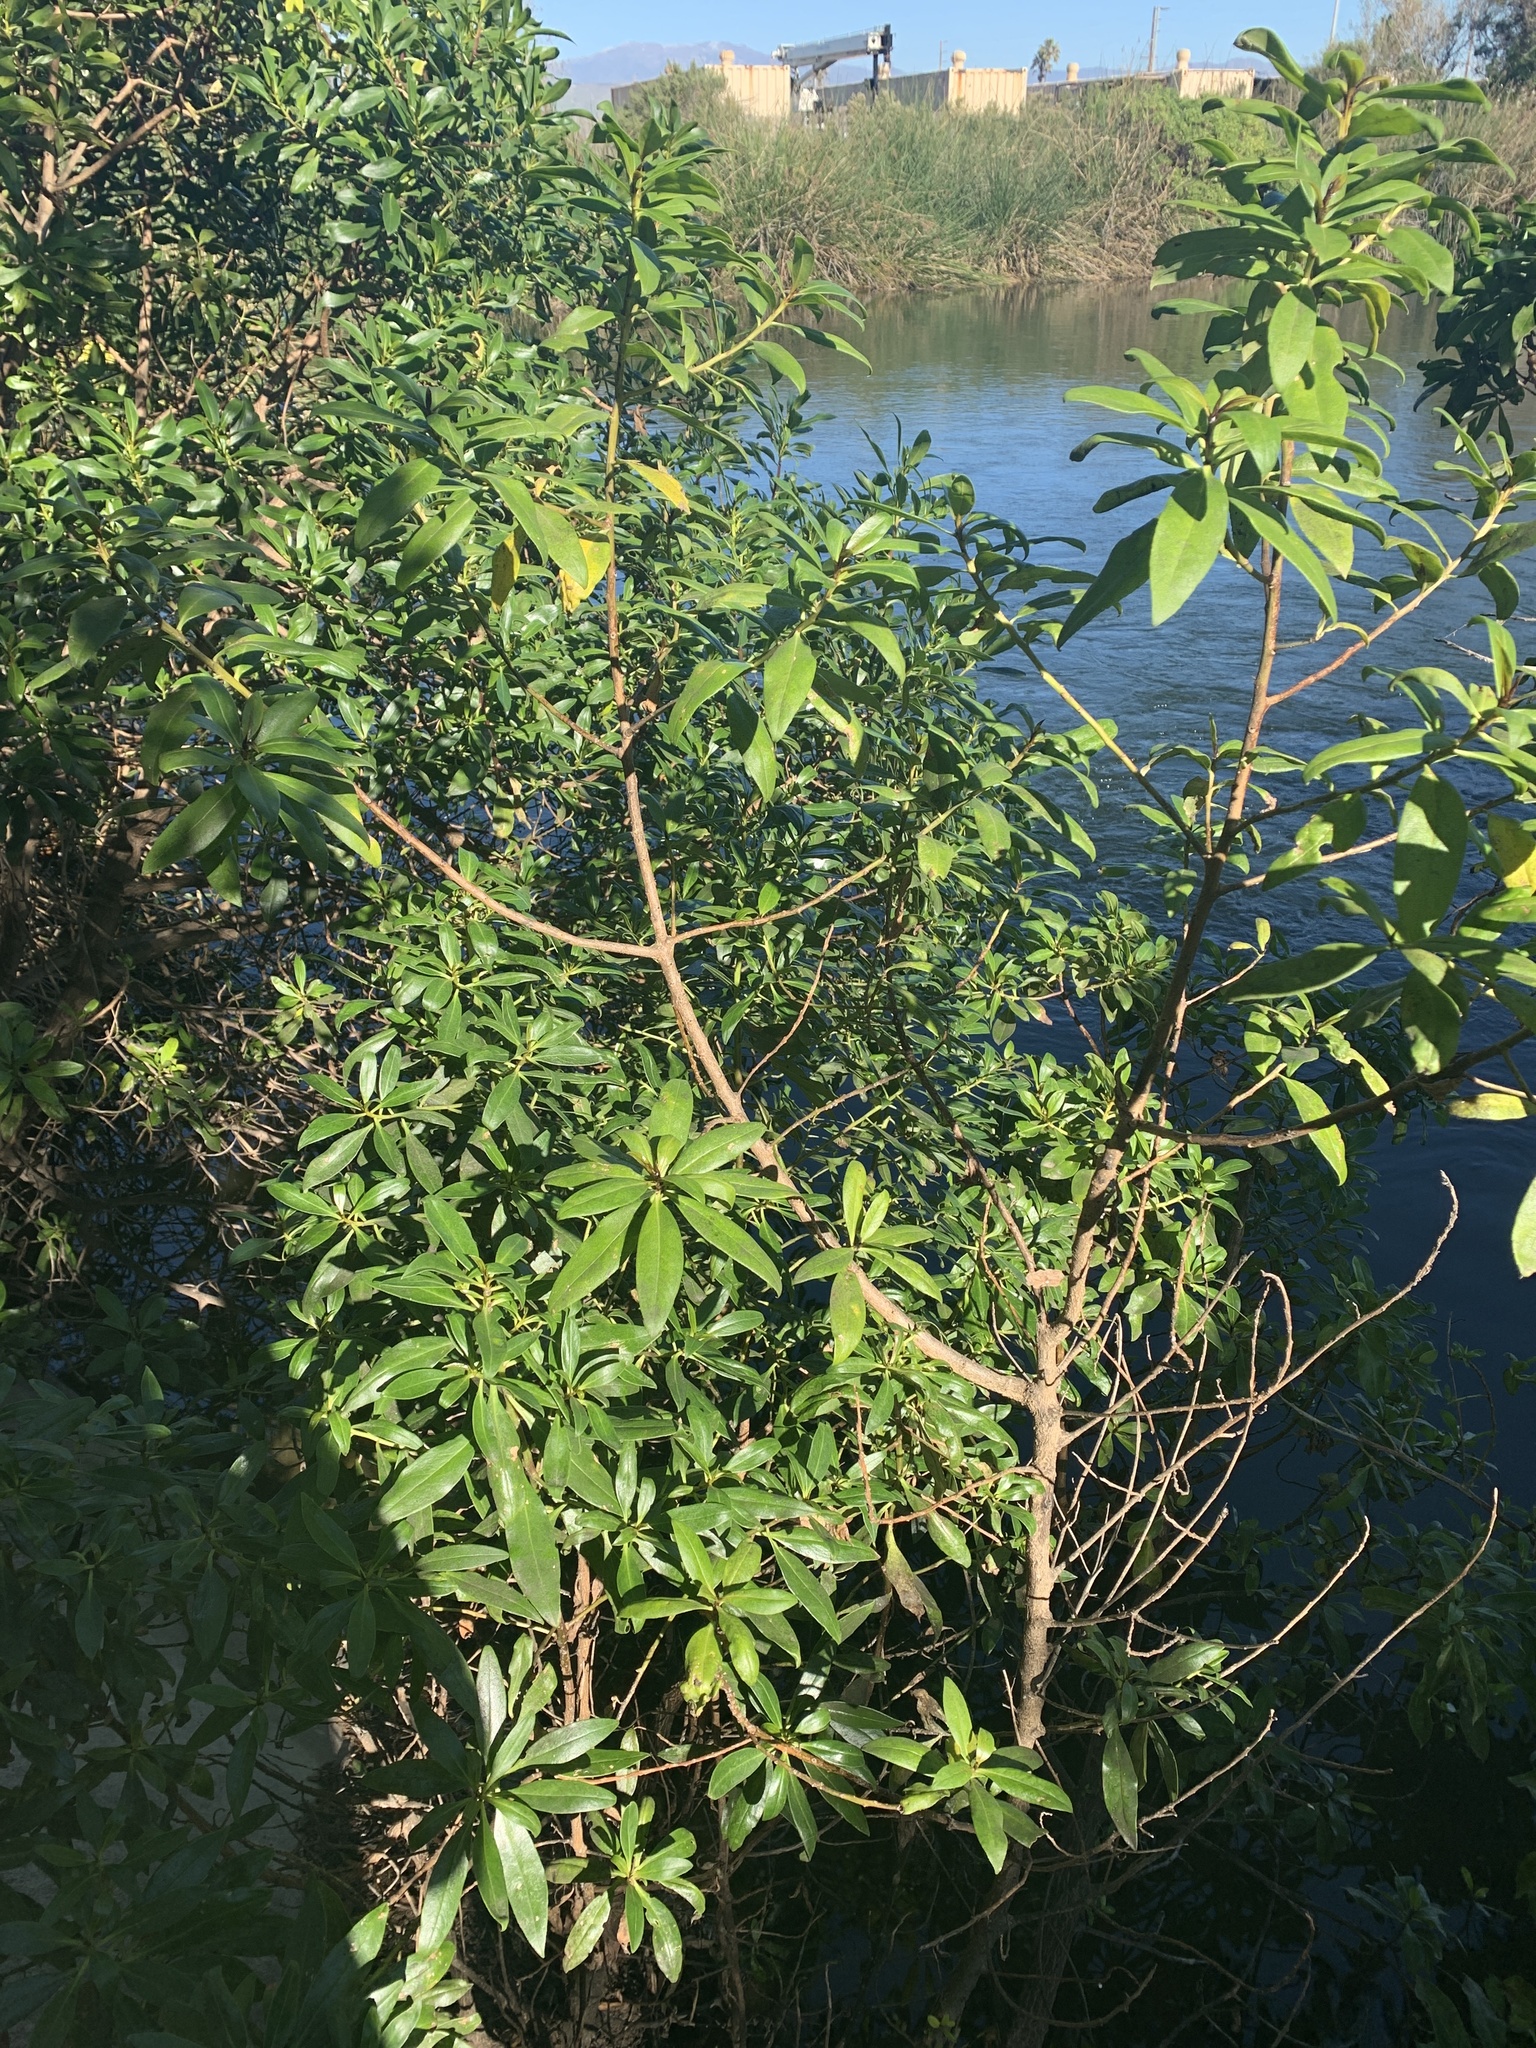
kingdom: Plantae
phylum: Tracheophyta
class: Magnoliopsida
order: Lamiales
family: Scrophulariaceae
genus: Myoporum
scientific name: Myoporum laetum
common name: Ngaio tree
